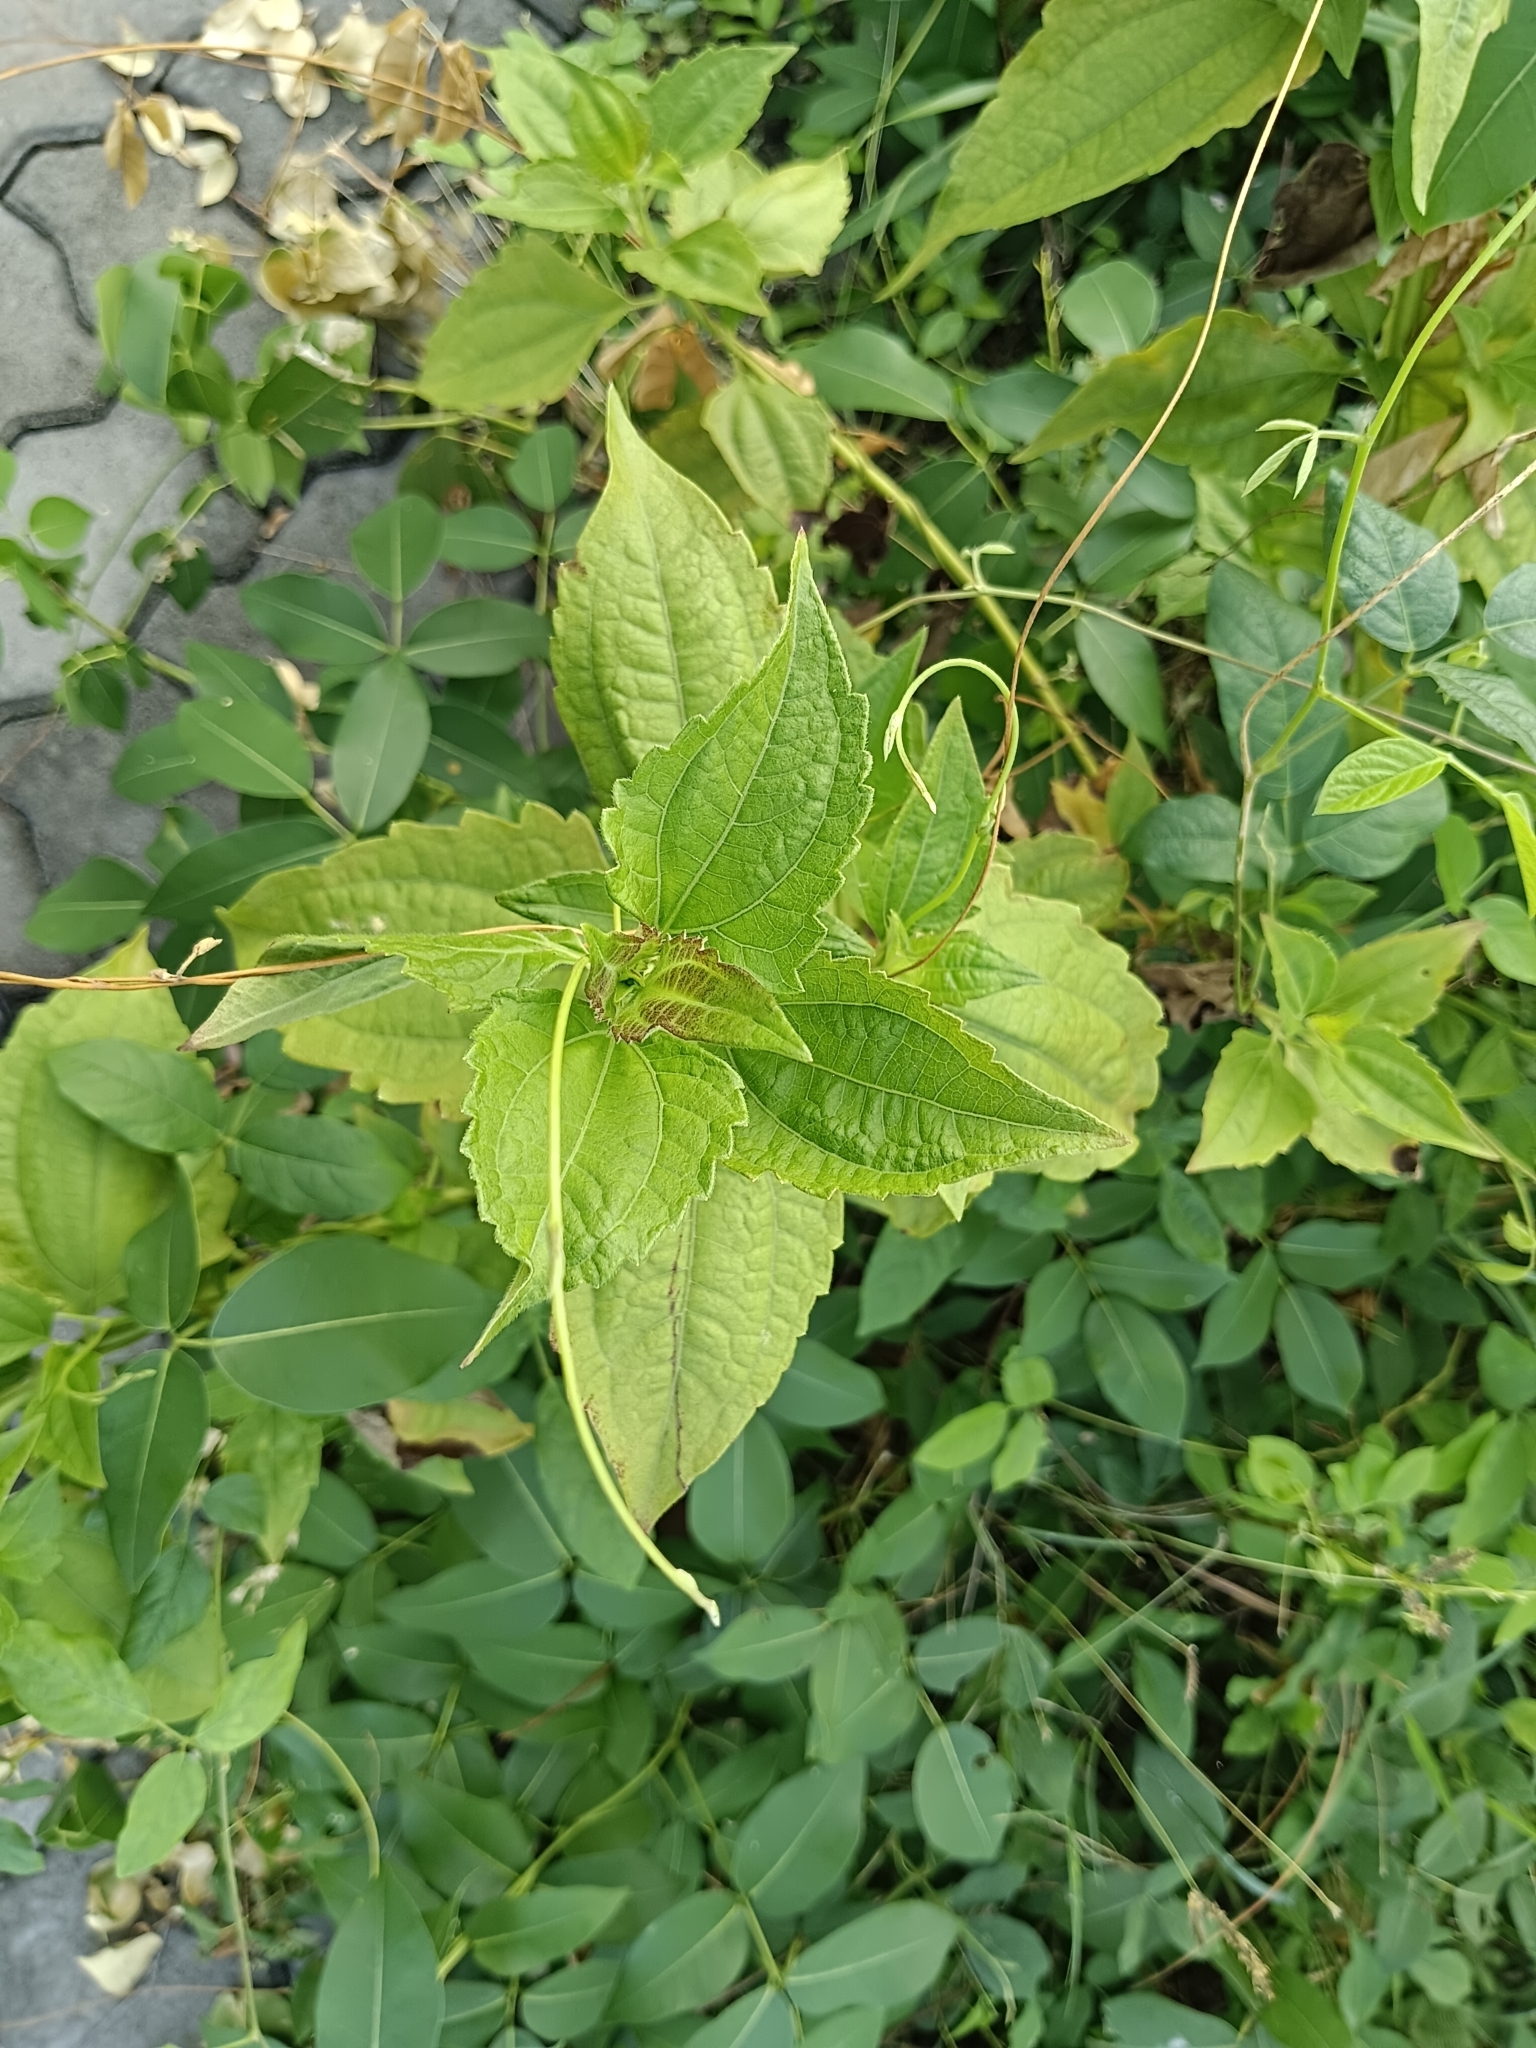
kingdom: Plantae
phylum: Tracheophyta
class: Magnoliopsida
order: Asterales
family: Asteraceae
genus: Chromolaena
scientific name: Chromolaena odorata
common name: Siamweed
